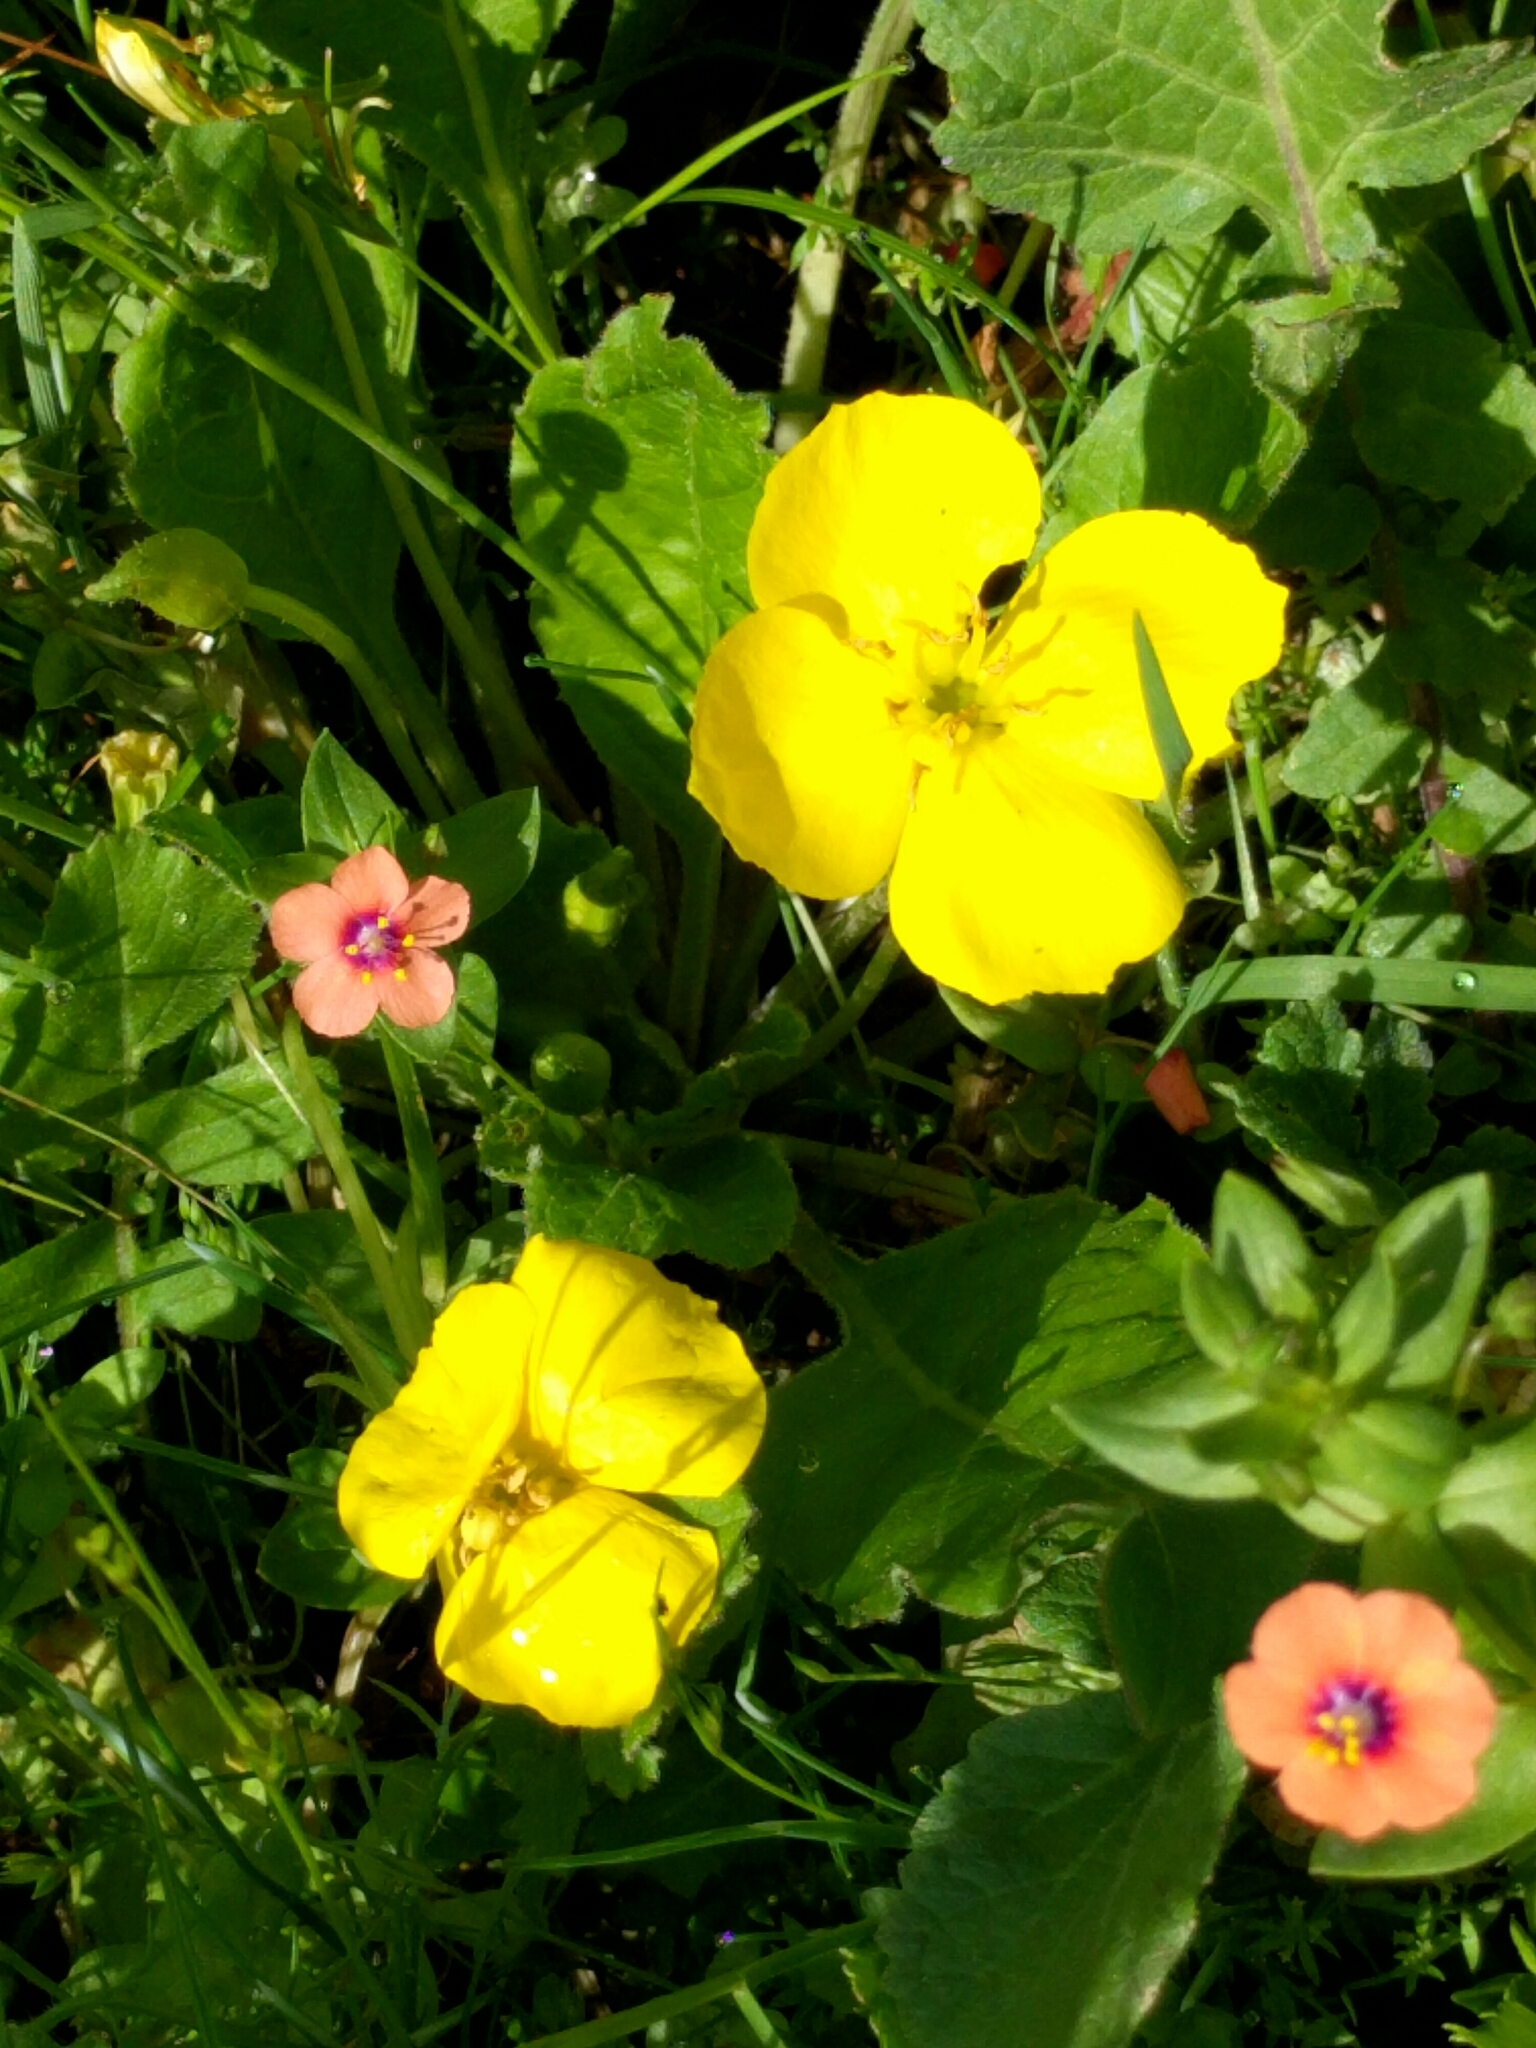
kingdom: Plantae
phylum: Tracheophyta
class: Magnoliopsida
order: Myrtales
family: Onagraceae
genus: Taraxia
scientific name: Taraxia ovata
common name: Goldeneggs
